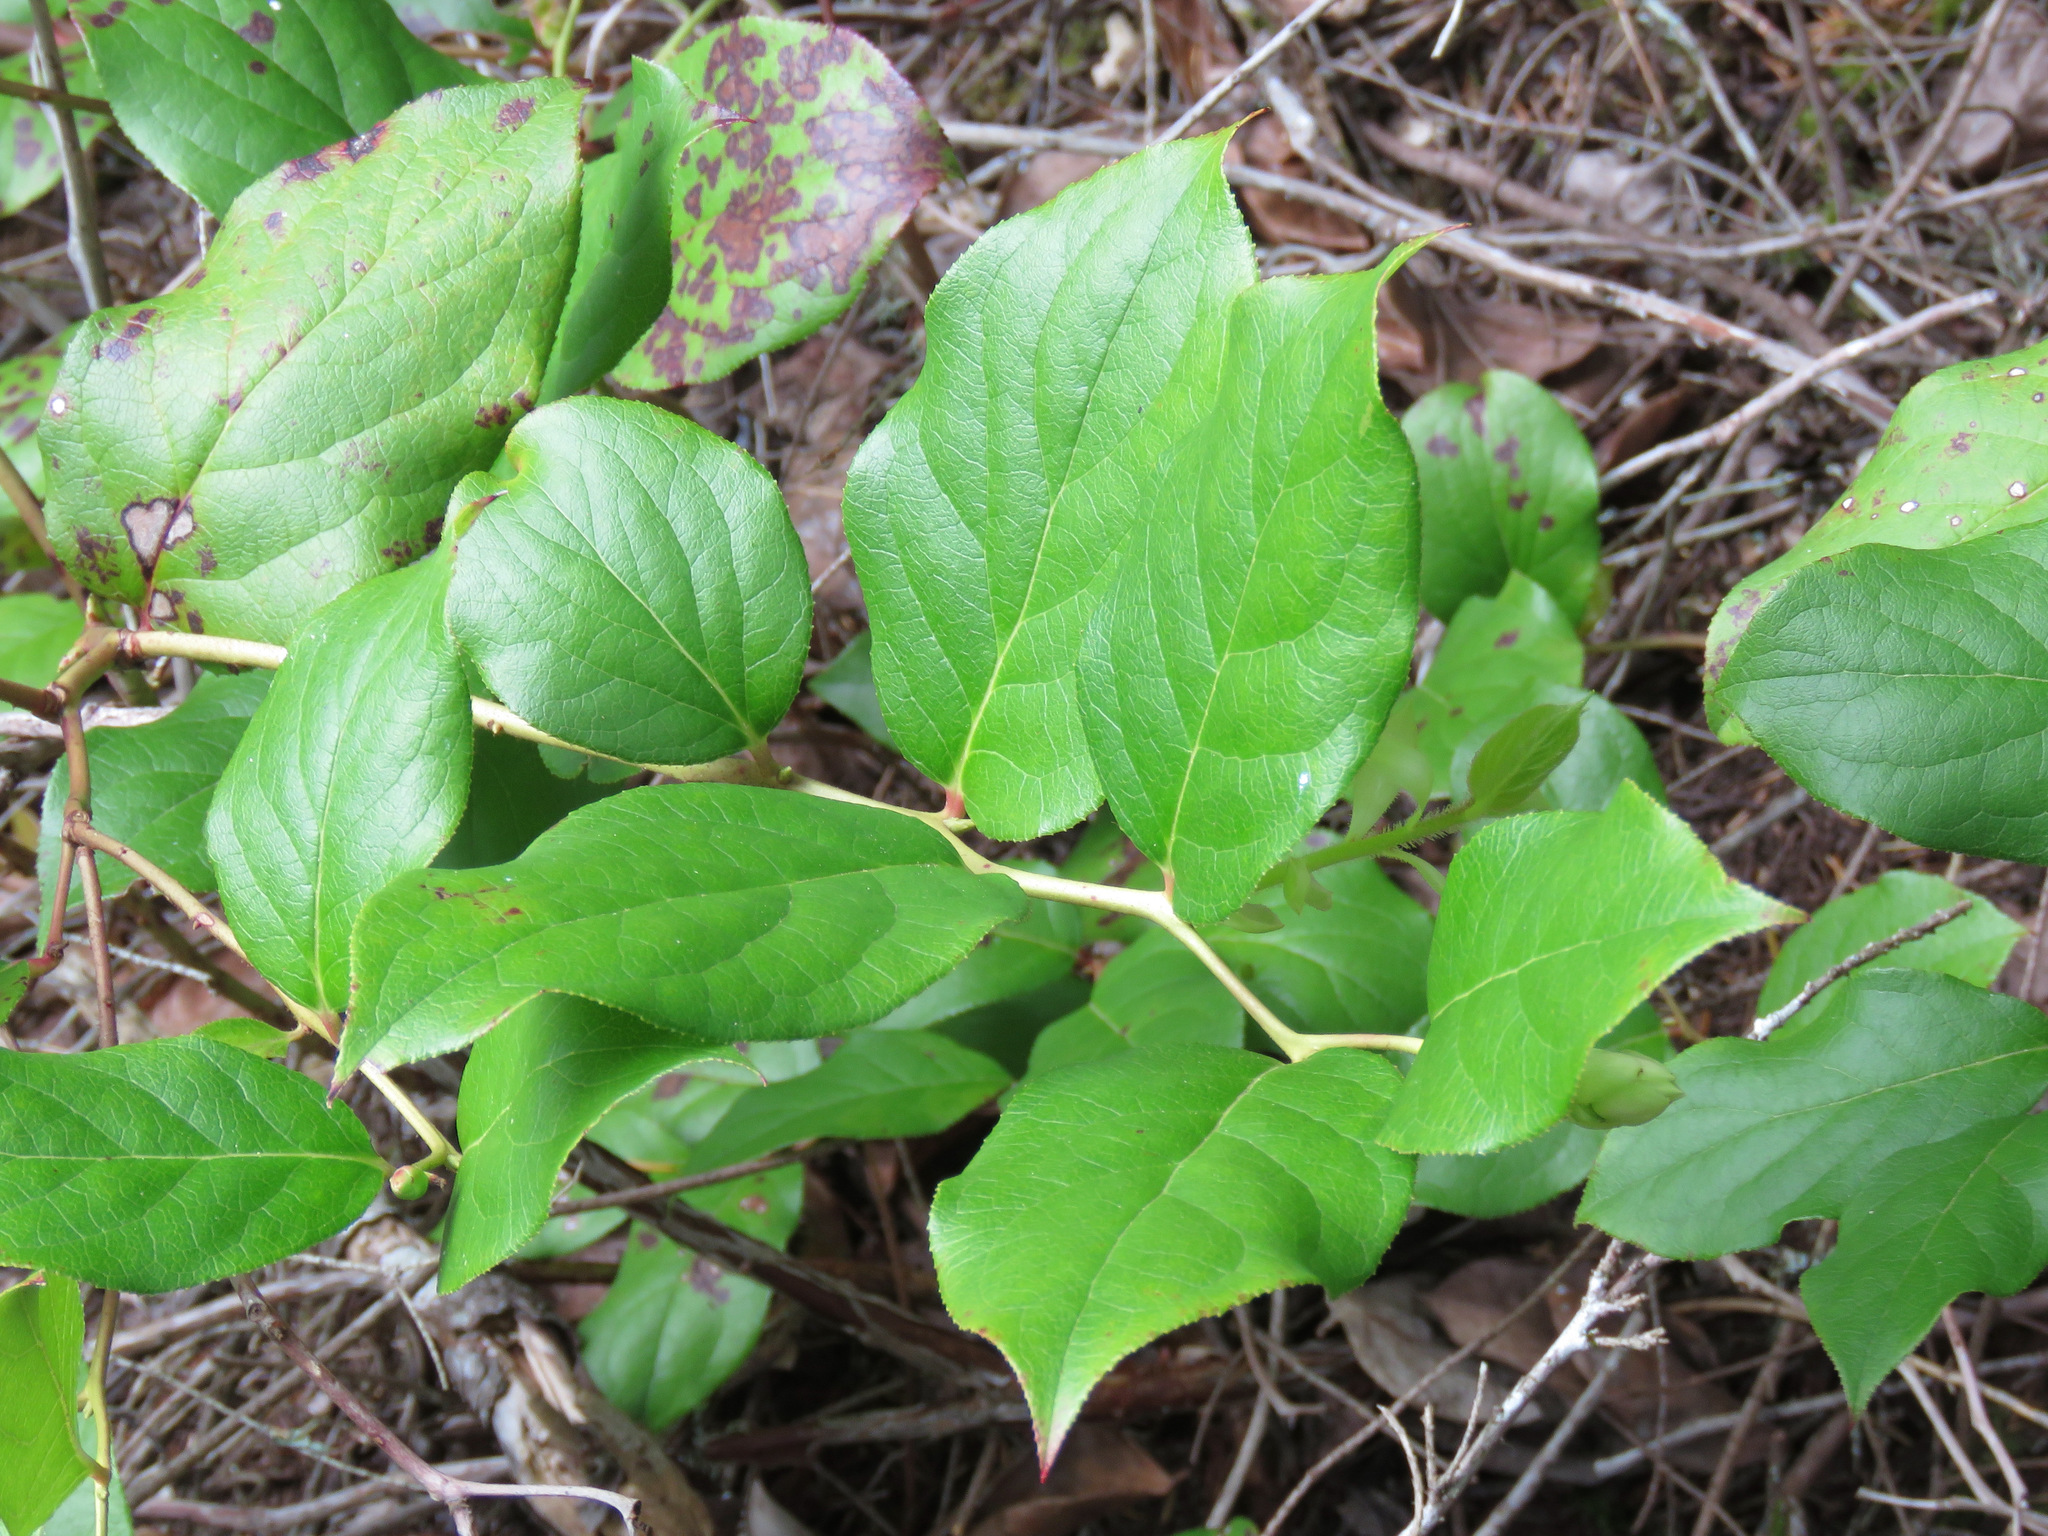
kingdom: Plantae
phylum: Tracheophyta
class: Magnoliopsida
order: Ericales
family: Ericaceae
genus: Gaultheria
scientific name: Gaultheria shallon
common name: Shallon
